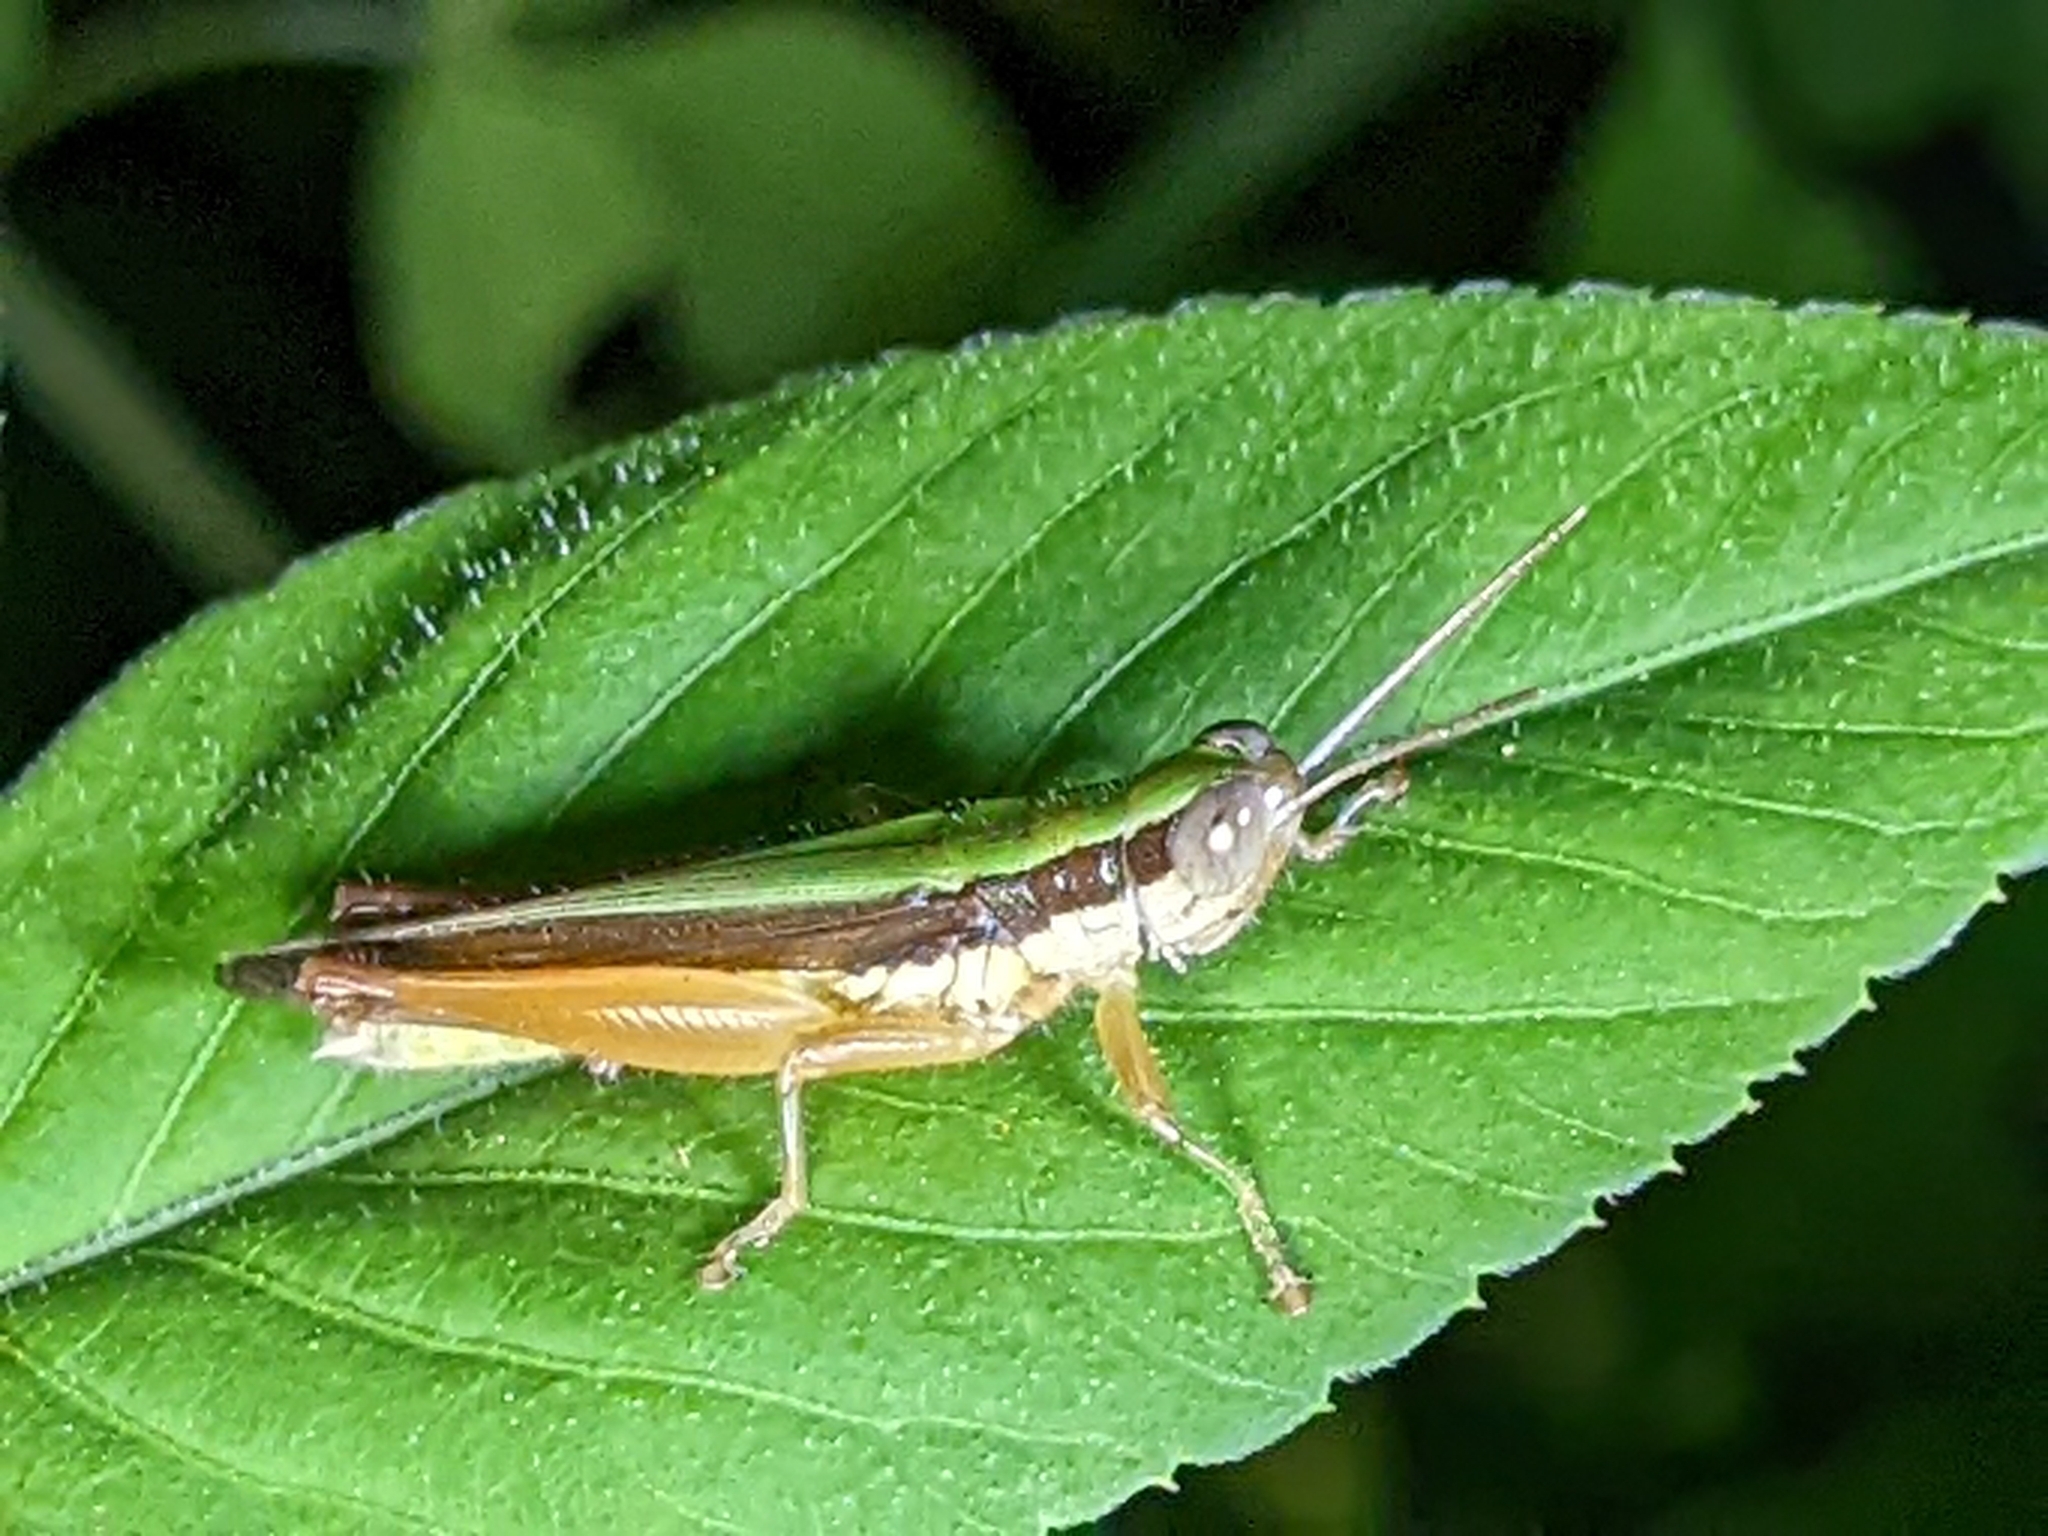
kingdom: Animalia
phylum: Arthropoda
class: Insecta
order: Orthoptera
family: Acrididae
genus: Oxya
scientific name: Oxya intricata
